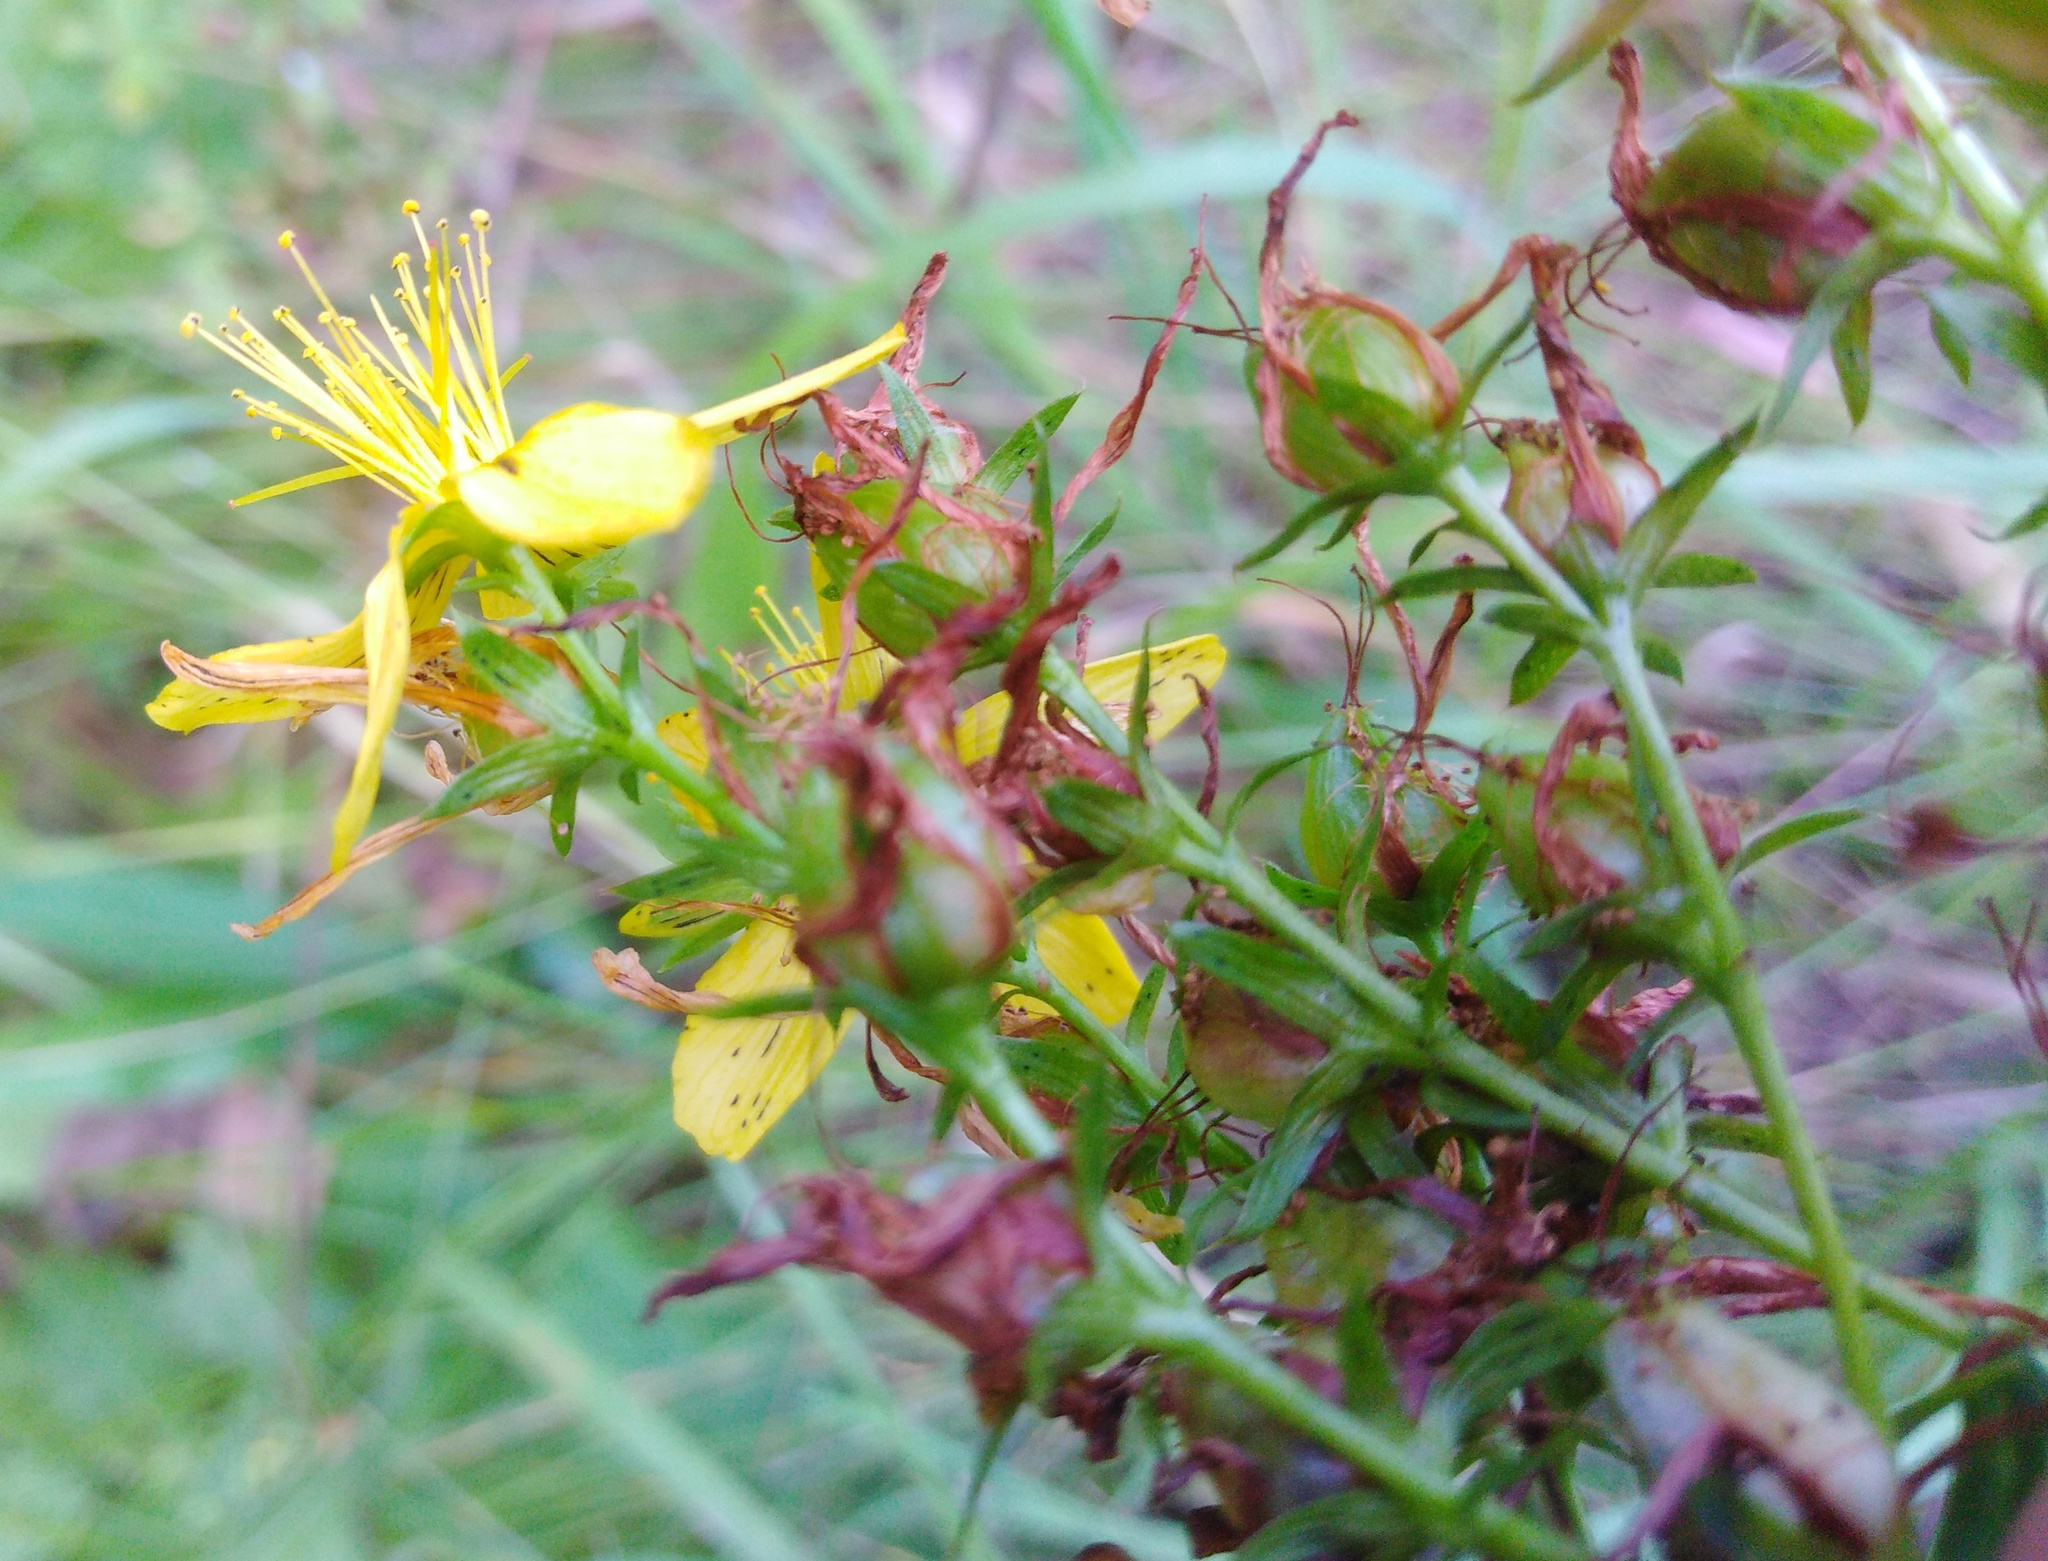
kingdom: Plantae
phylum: Tracheophyta
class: Magnoliopsida
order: Malpighiales
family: Hypericaceae
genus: Hypericum
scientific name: Hypericum perforatum
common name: Common st. johnswort
